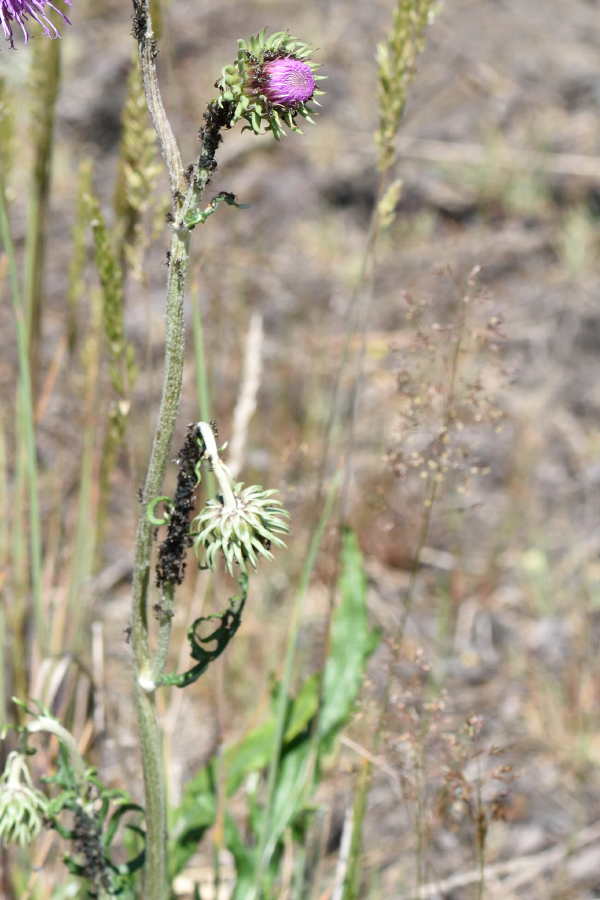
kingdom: Plantae
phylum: Tracheophyta
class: Magnoliopsida
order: Asterales
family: Asteraceae
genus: Jurinea
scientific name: Jurinea cyanoides
